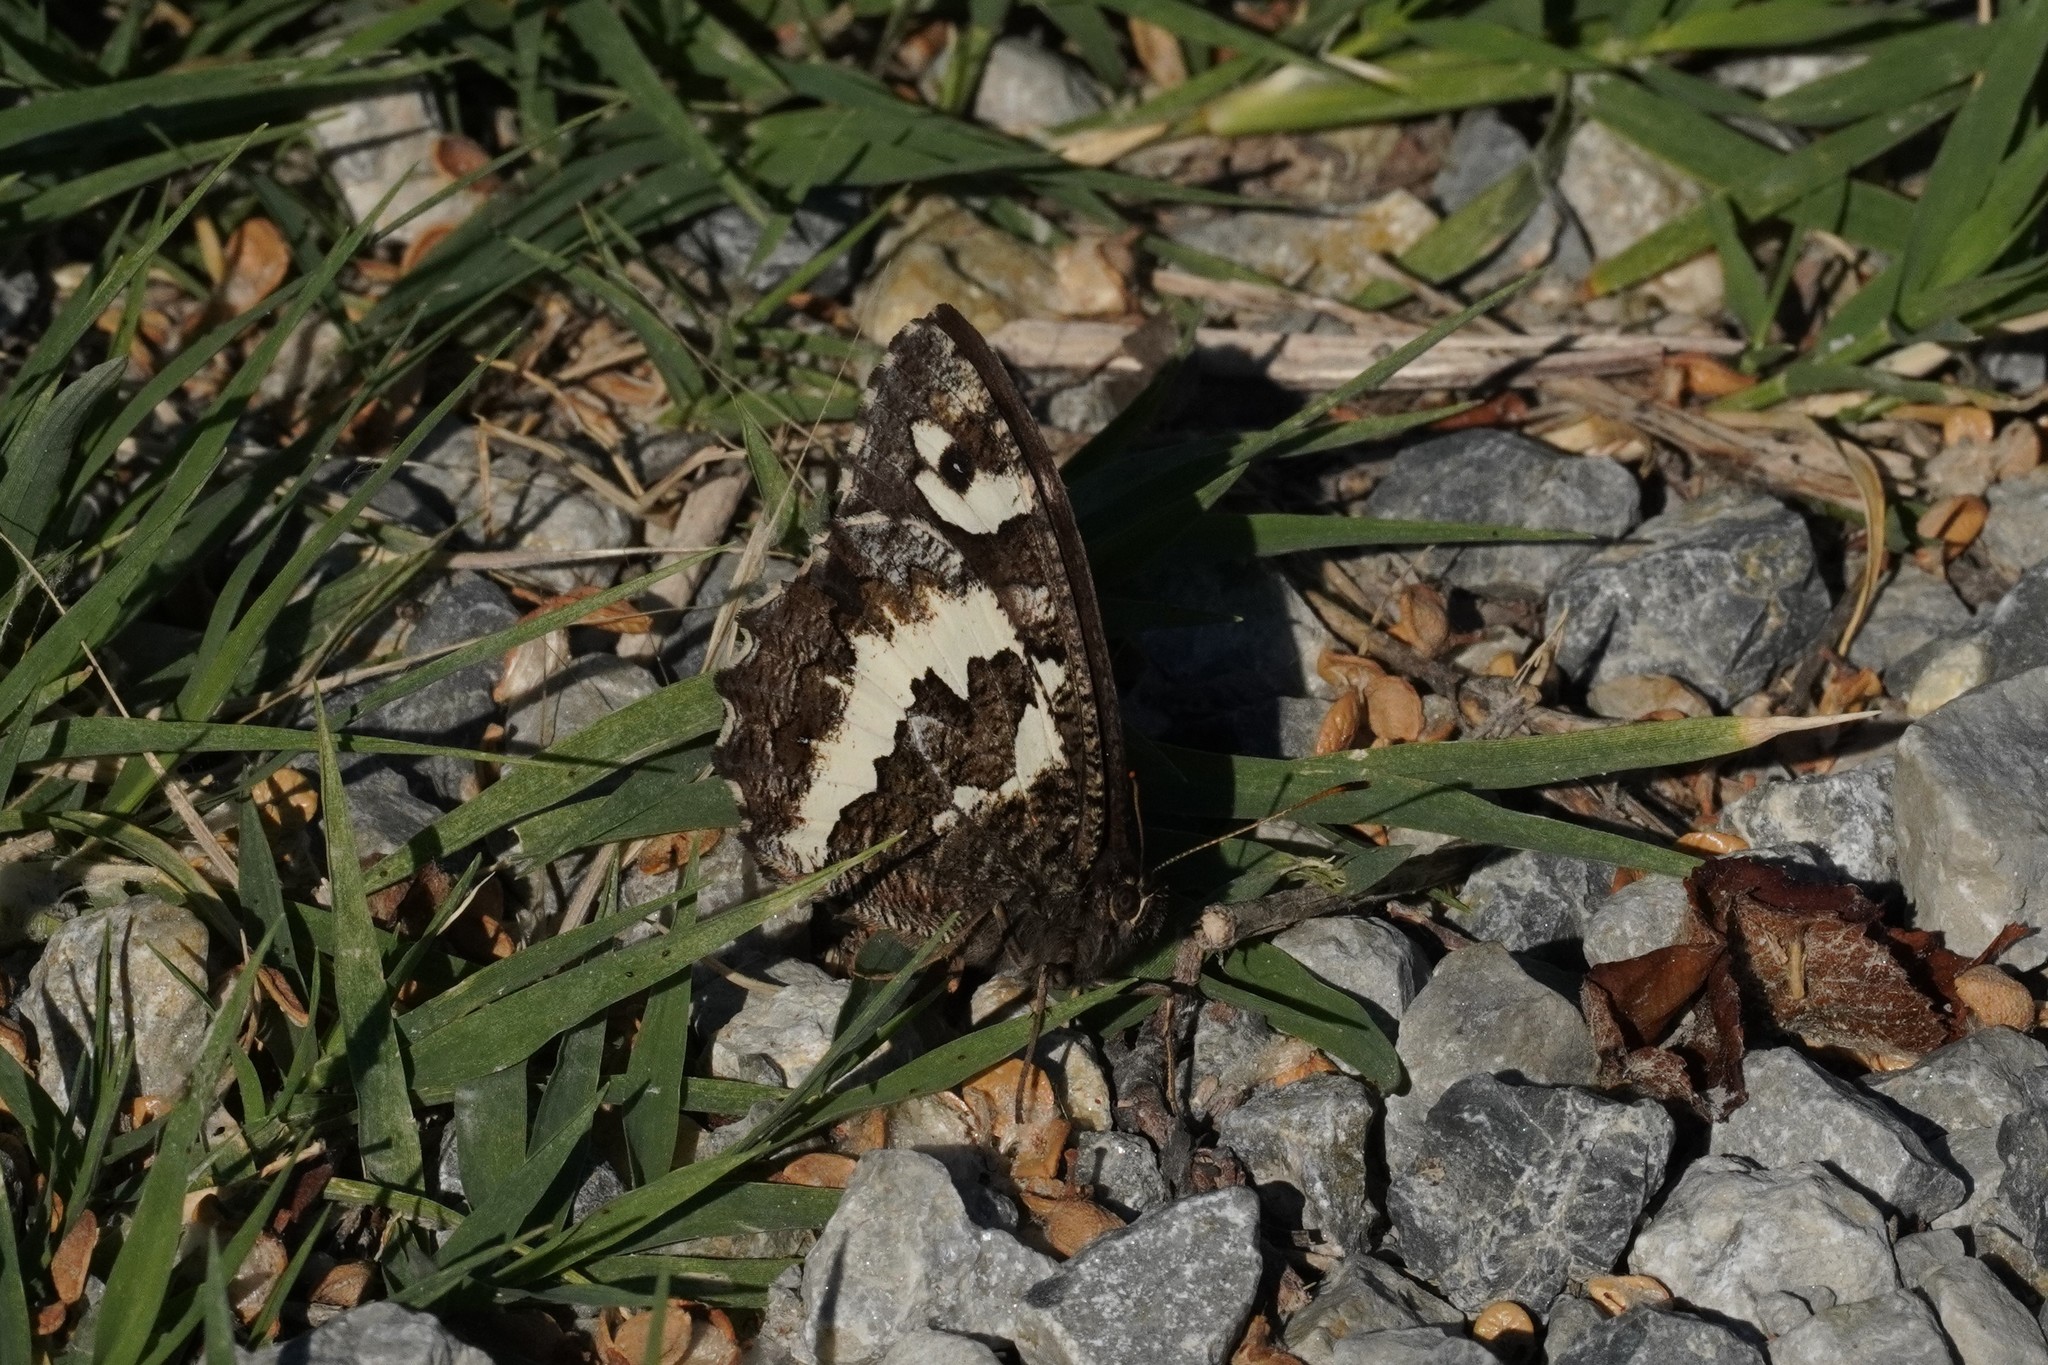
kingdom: Animalia
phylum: Arthropoda
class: Insecta
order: Lepidoptera
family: Lycaenidae
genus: Loweia
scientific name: Loweia tityrus
